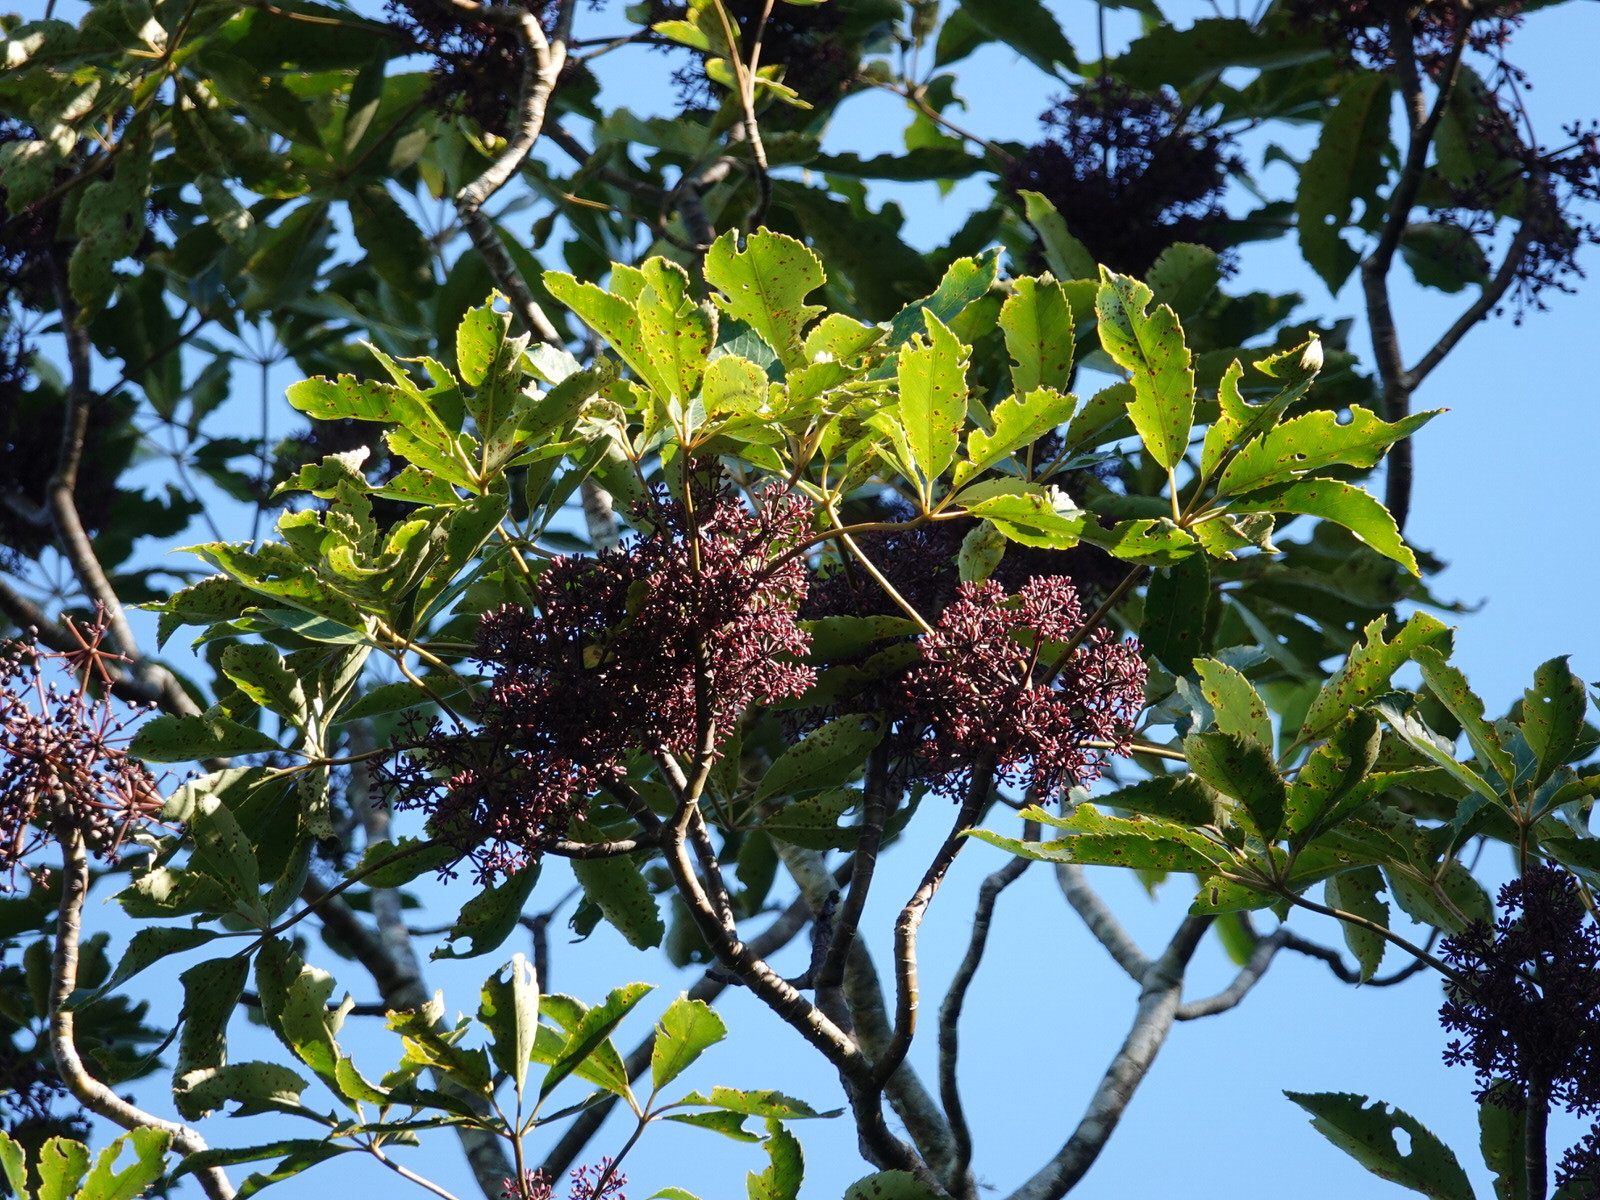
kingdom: Plantae
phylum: Tracheophyta
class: Magnoliopsida
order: Apiales
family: Araliaceae
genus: Neopanax
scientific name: Neopanax arboreus
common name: Five-fingers
